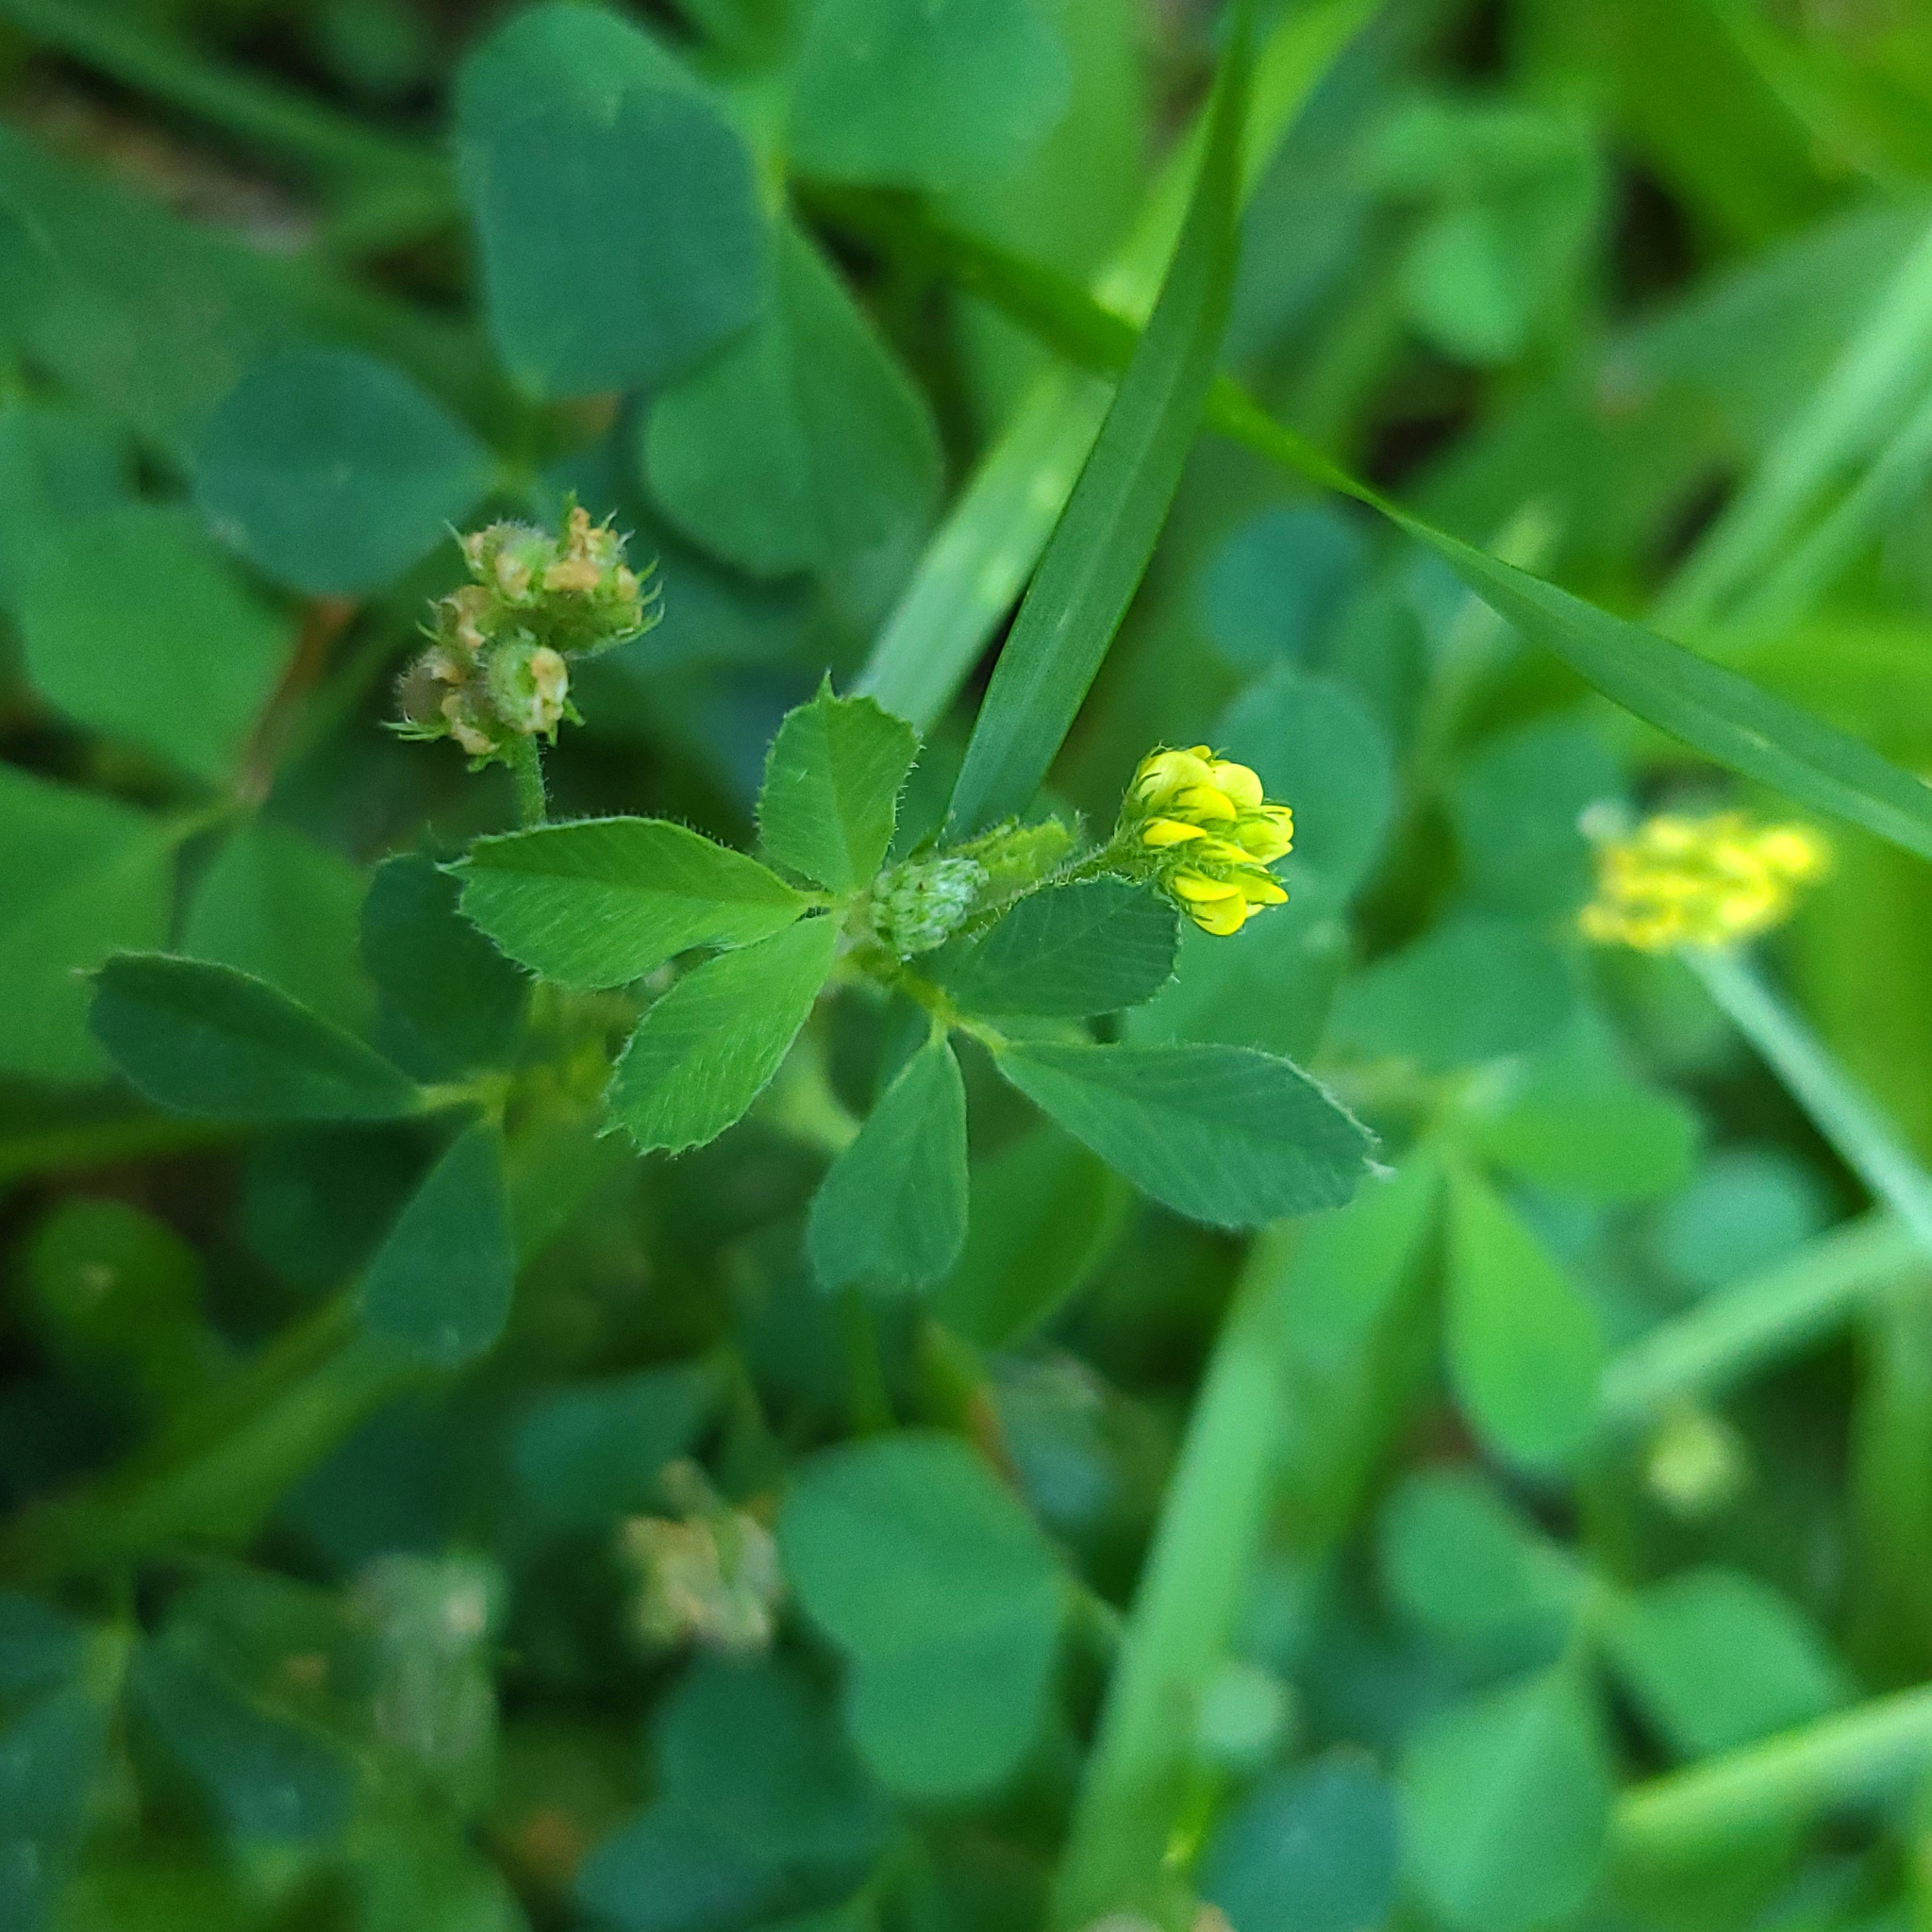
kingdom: Plantae
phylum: Tracheophyta
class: Magnoliopsida
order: Fabales
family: Fabaceae
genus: Medicago
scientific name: Medicago lupulina
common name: Black medick
